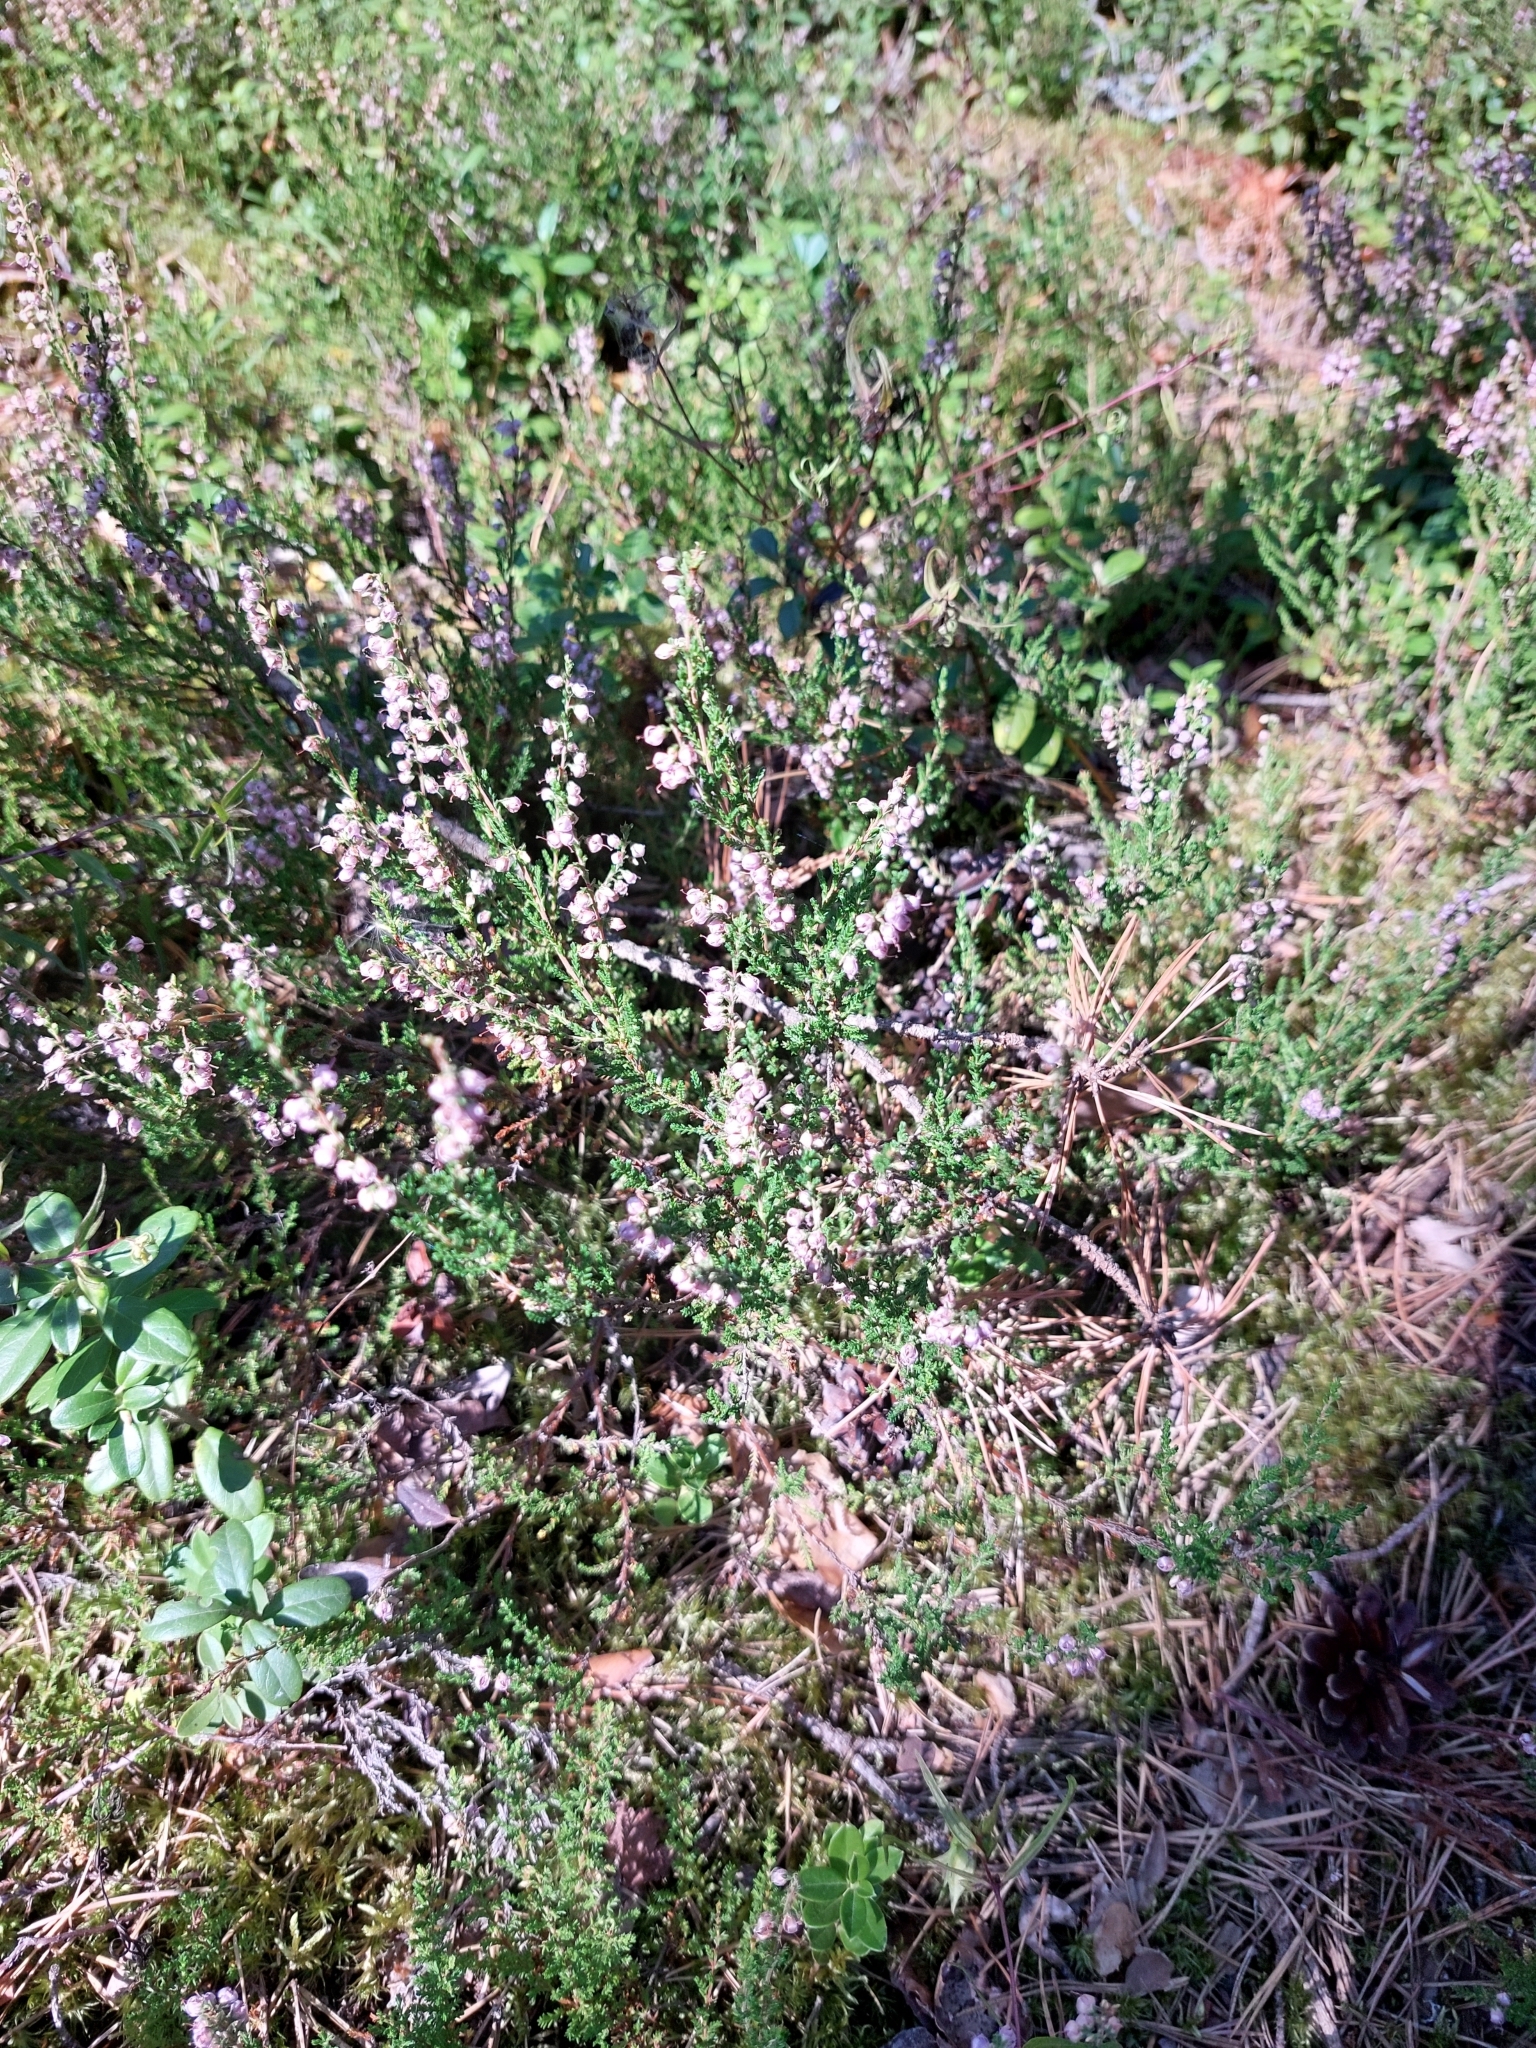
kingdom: Plantae
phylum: Tracheophyta
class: Magnoliopsida
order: Ericales
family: Ericaceae
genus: Calluna
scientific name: Calluna vulgaris
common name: Heather
